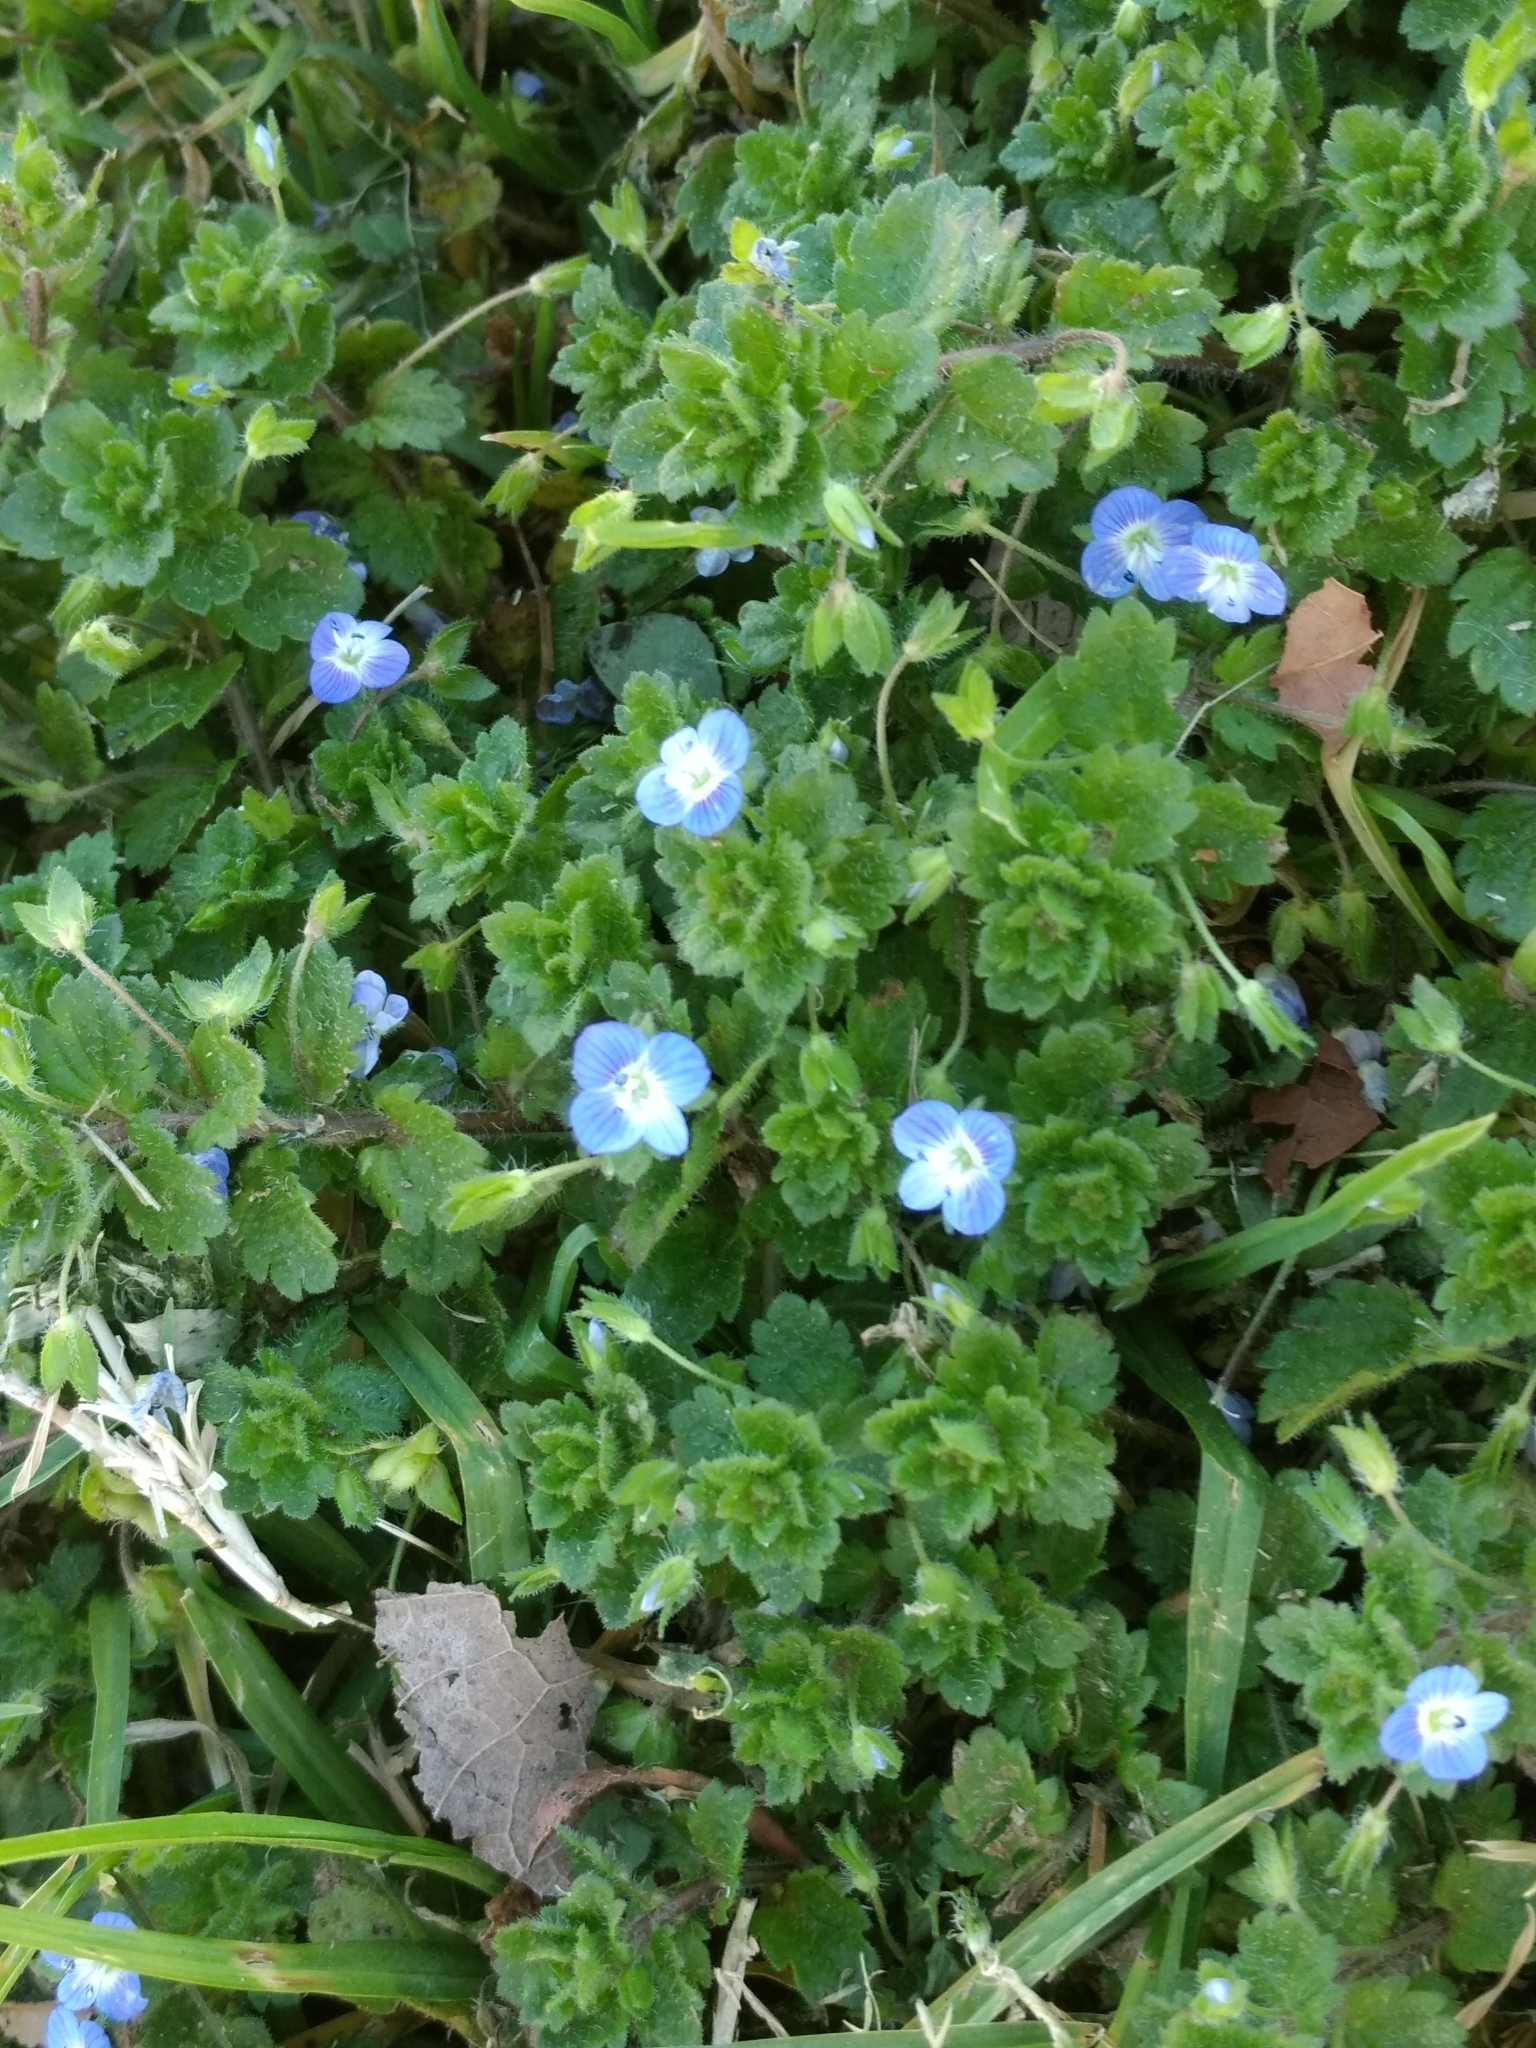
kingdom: Plantae
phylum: Tracheophyta
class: Magnoliopsida
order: Lamiales
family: Plantaginaceae
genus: Veronica
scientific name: Veronica persica
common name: Common field-speedwell
